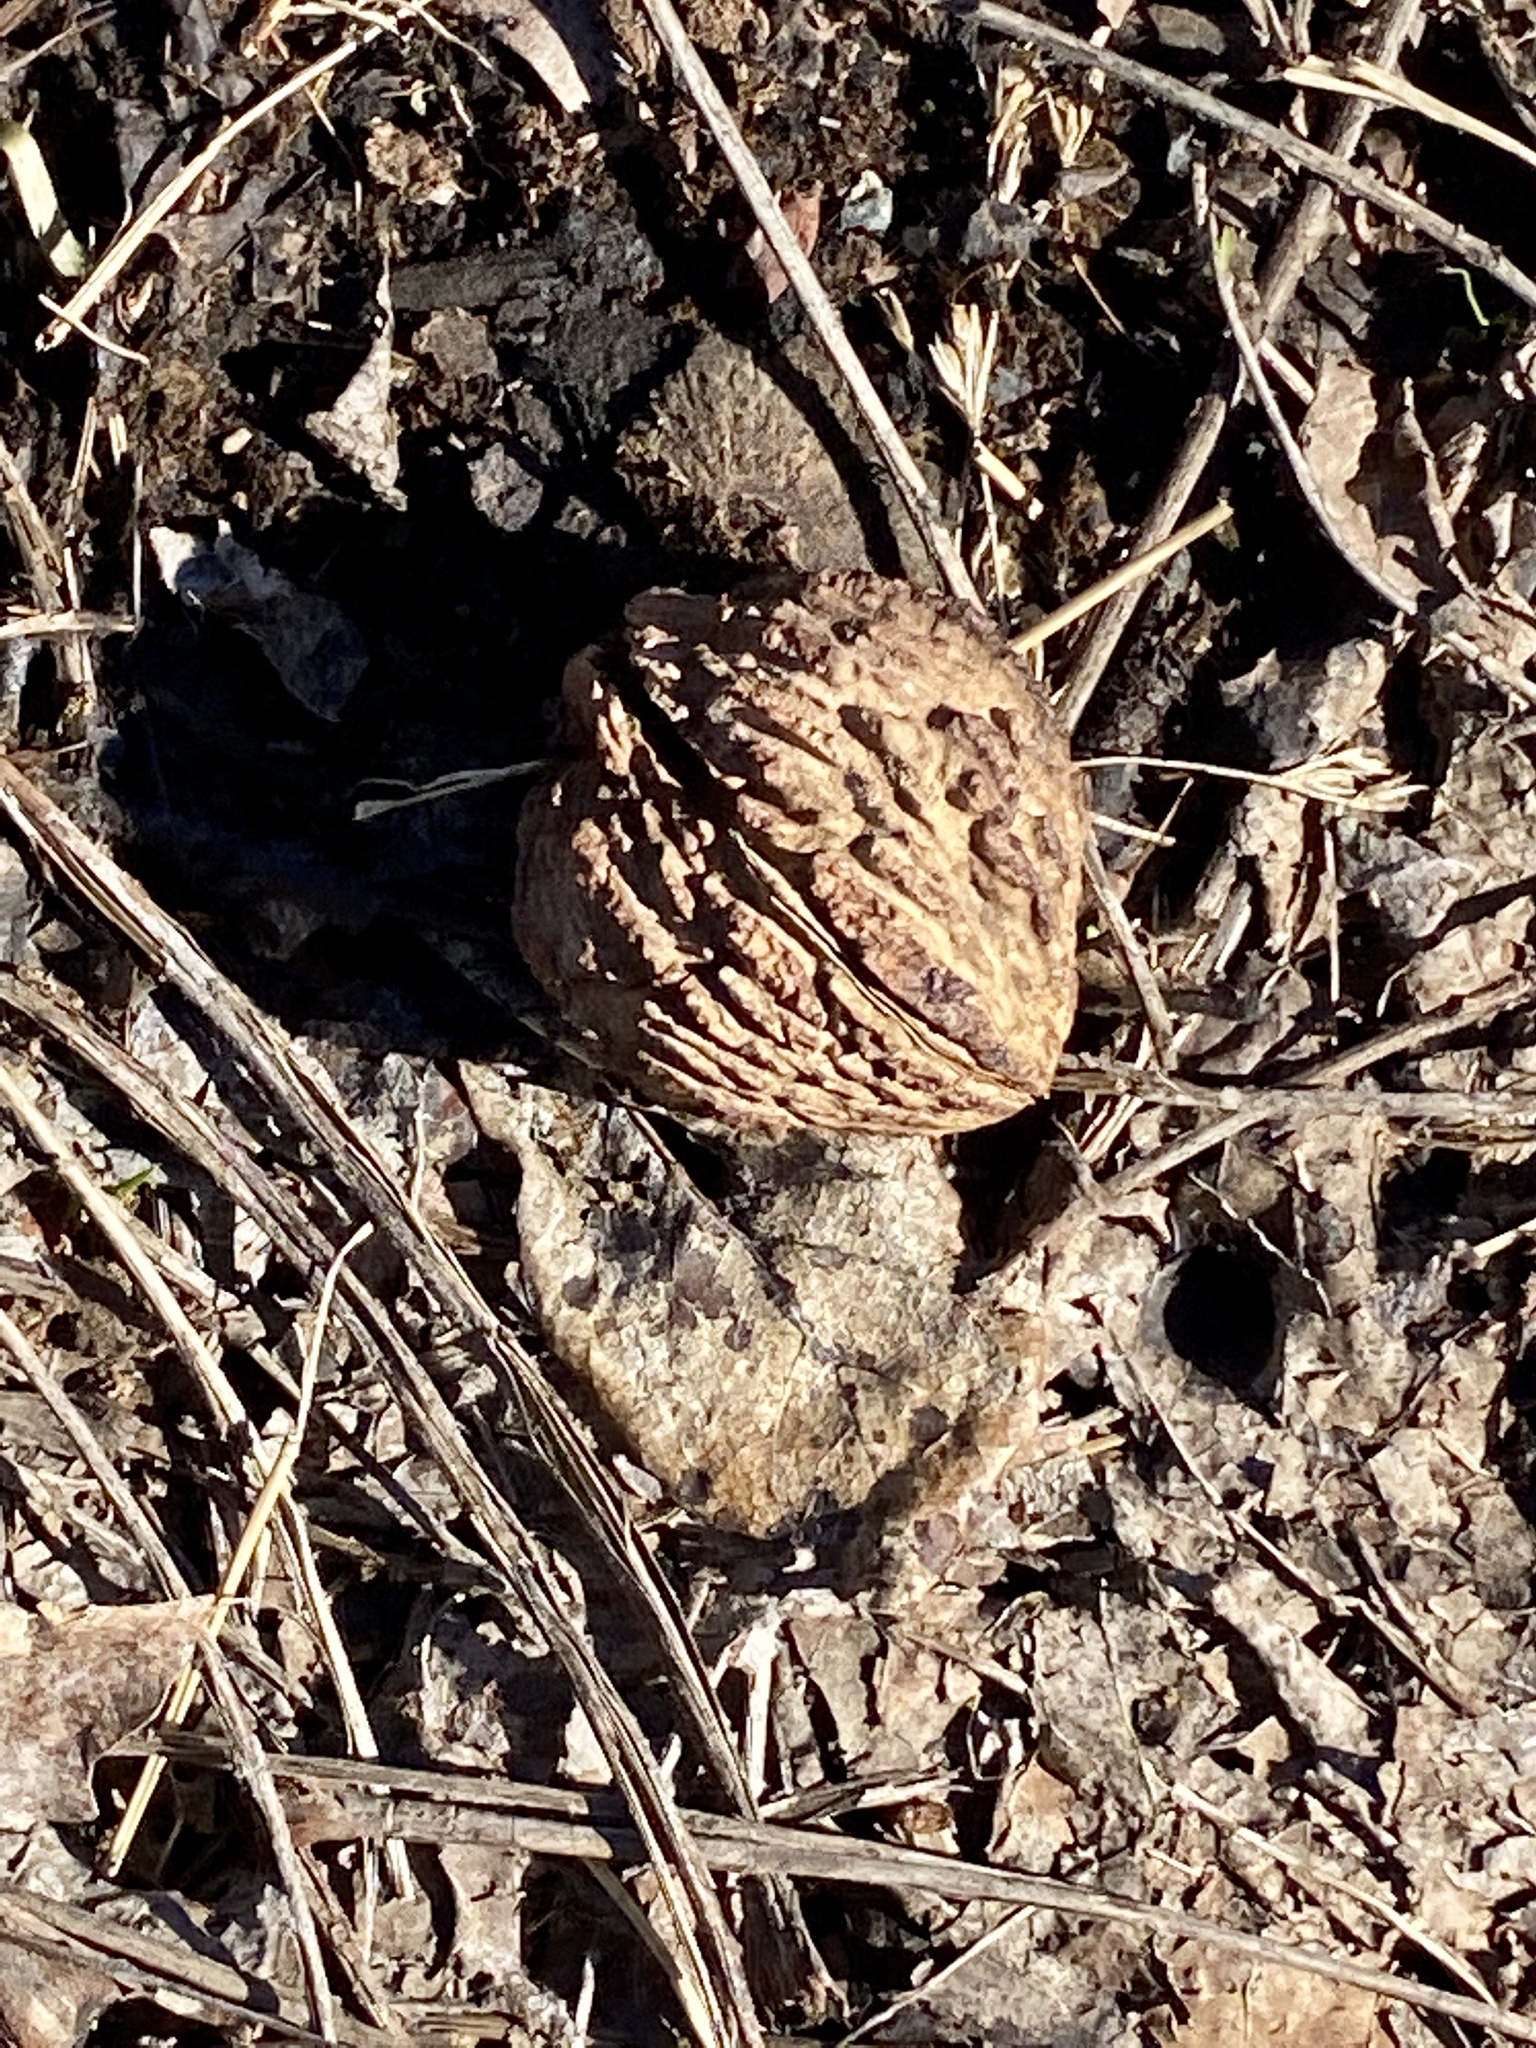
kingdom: Plantae
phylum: Tracheophyta
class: Magnoliopsida
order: Fagales
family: Juglandaceae
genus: Juglans
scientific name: Juglans nigra
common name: Black walnut
